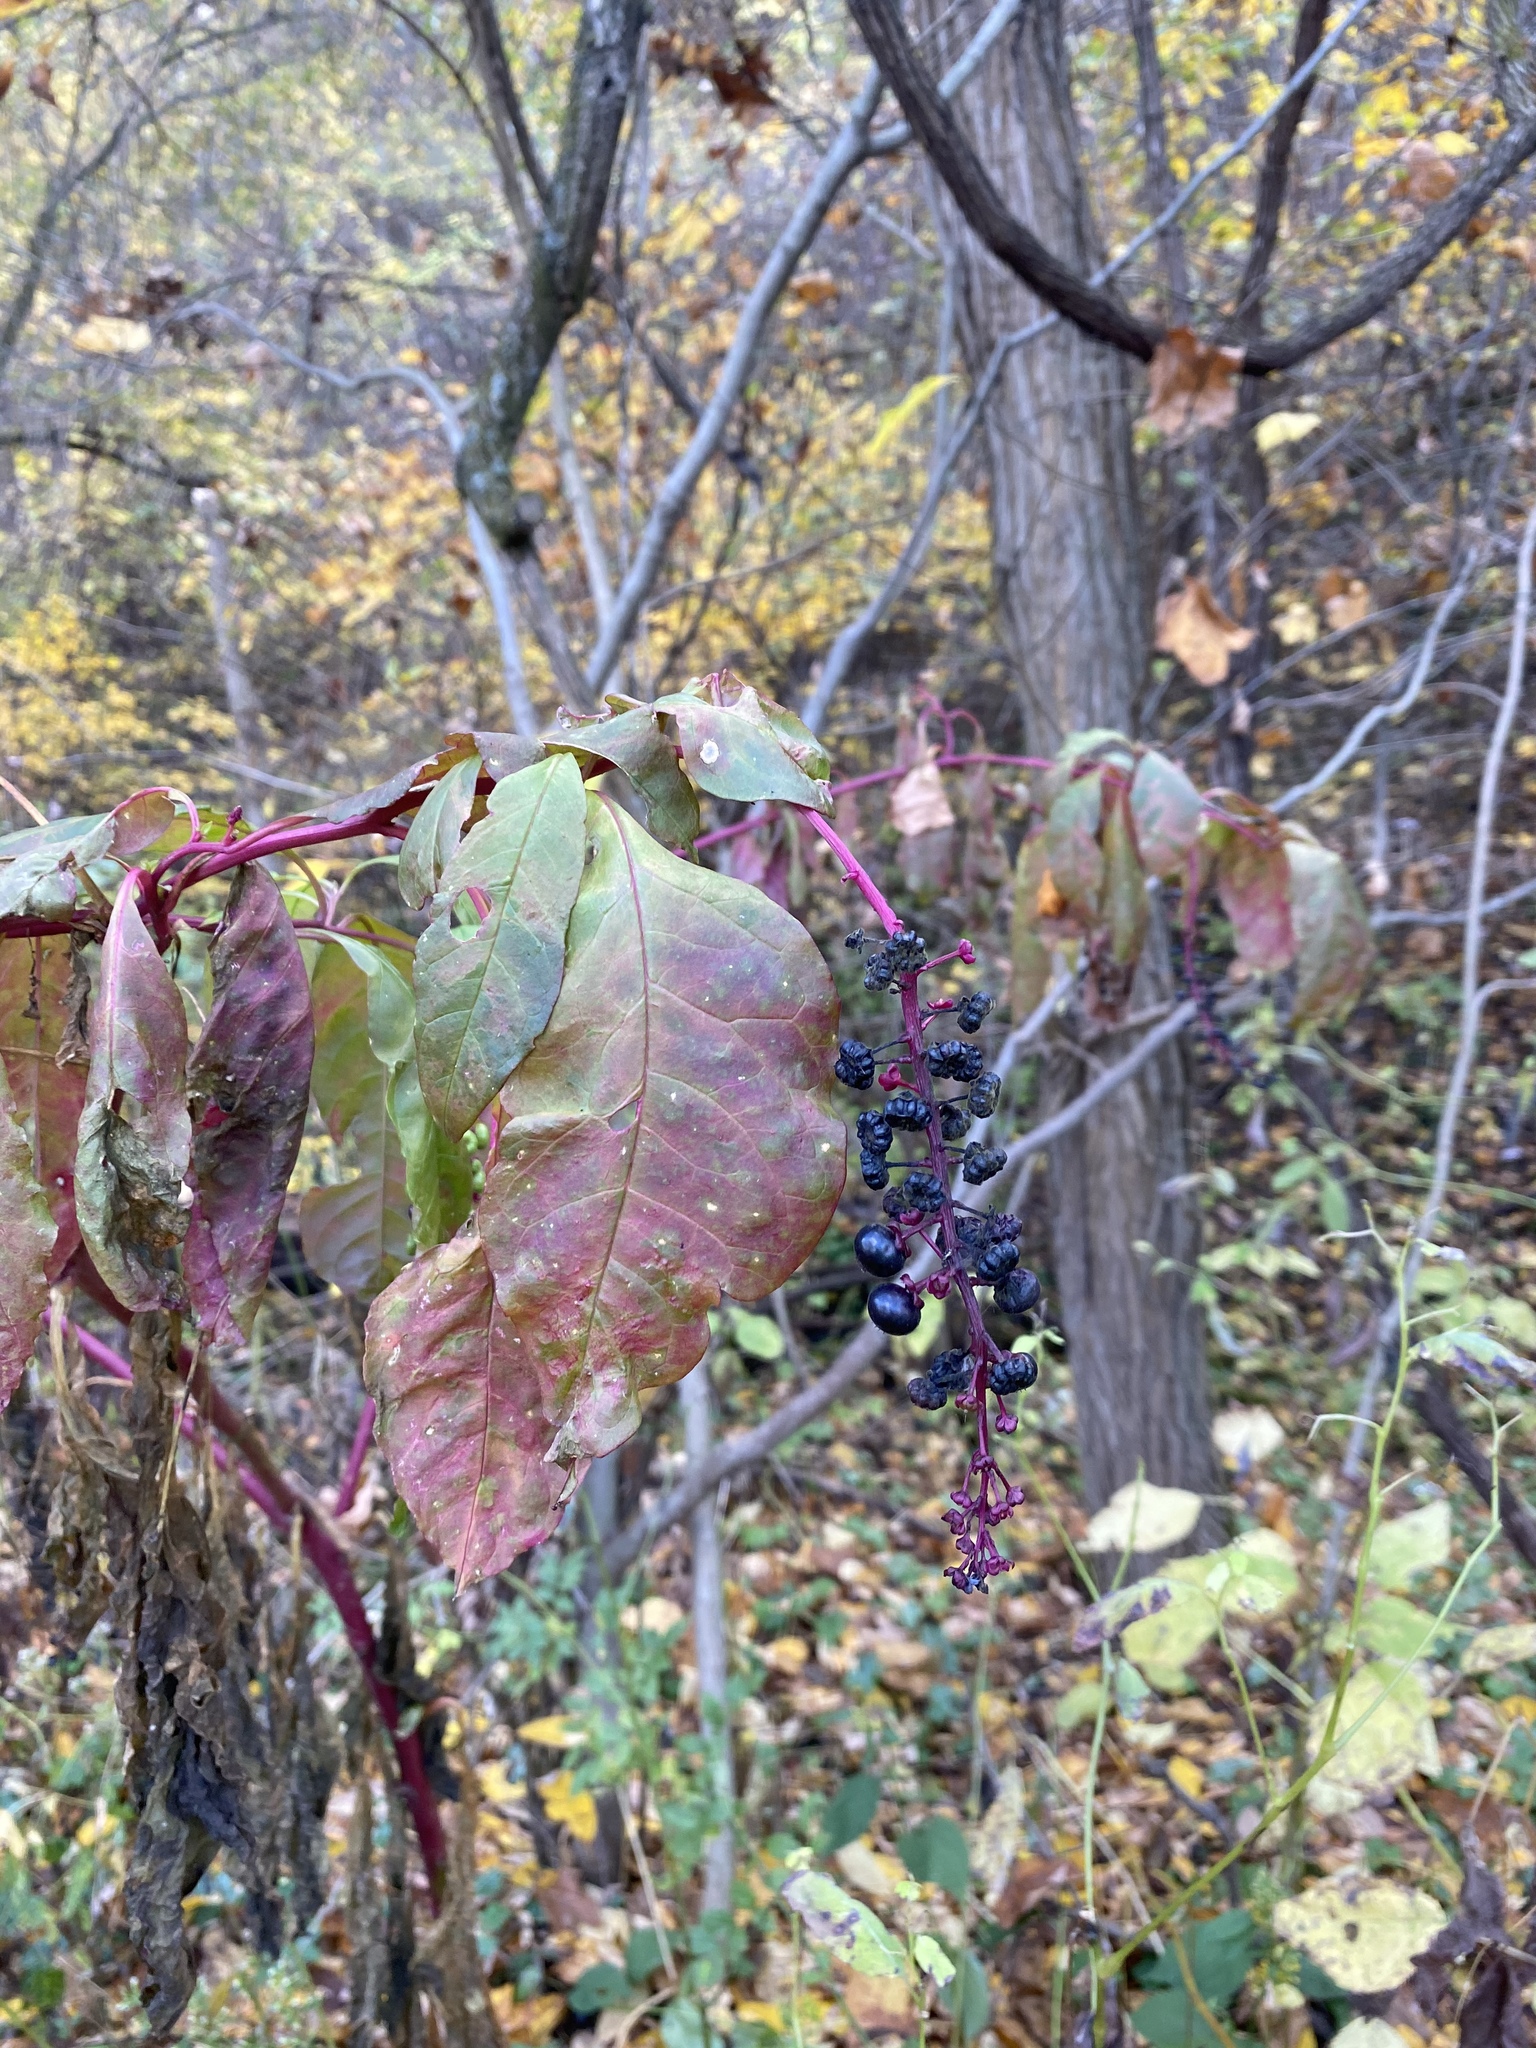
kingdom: Plantae
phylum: Tracheophyta
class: Magnoliopsida
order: Caryophyllales
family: Phytolaccaceae
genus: Phytolacca
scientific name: Phytolacca americana
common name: American pokeweed
